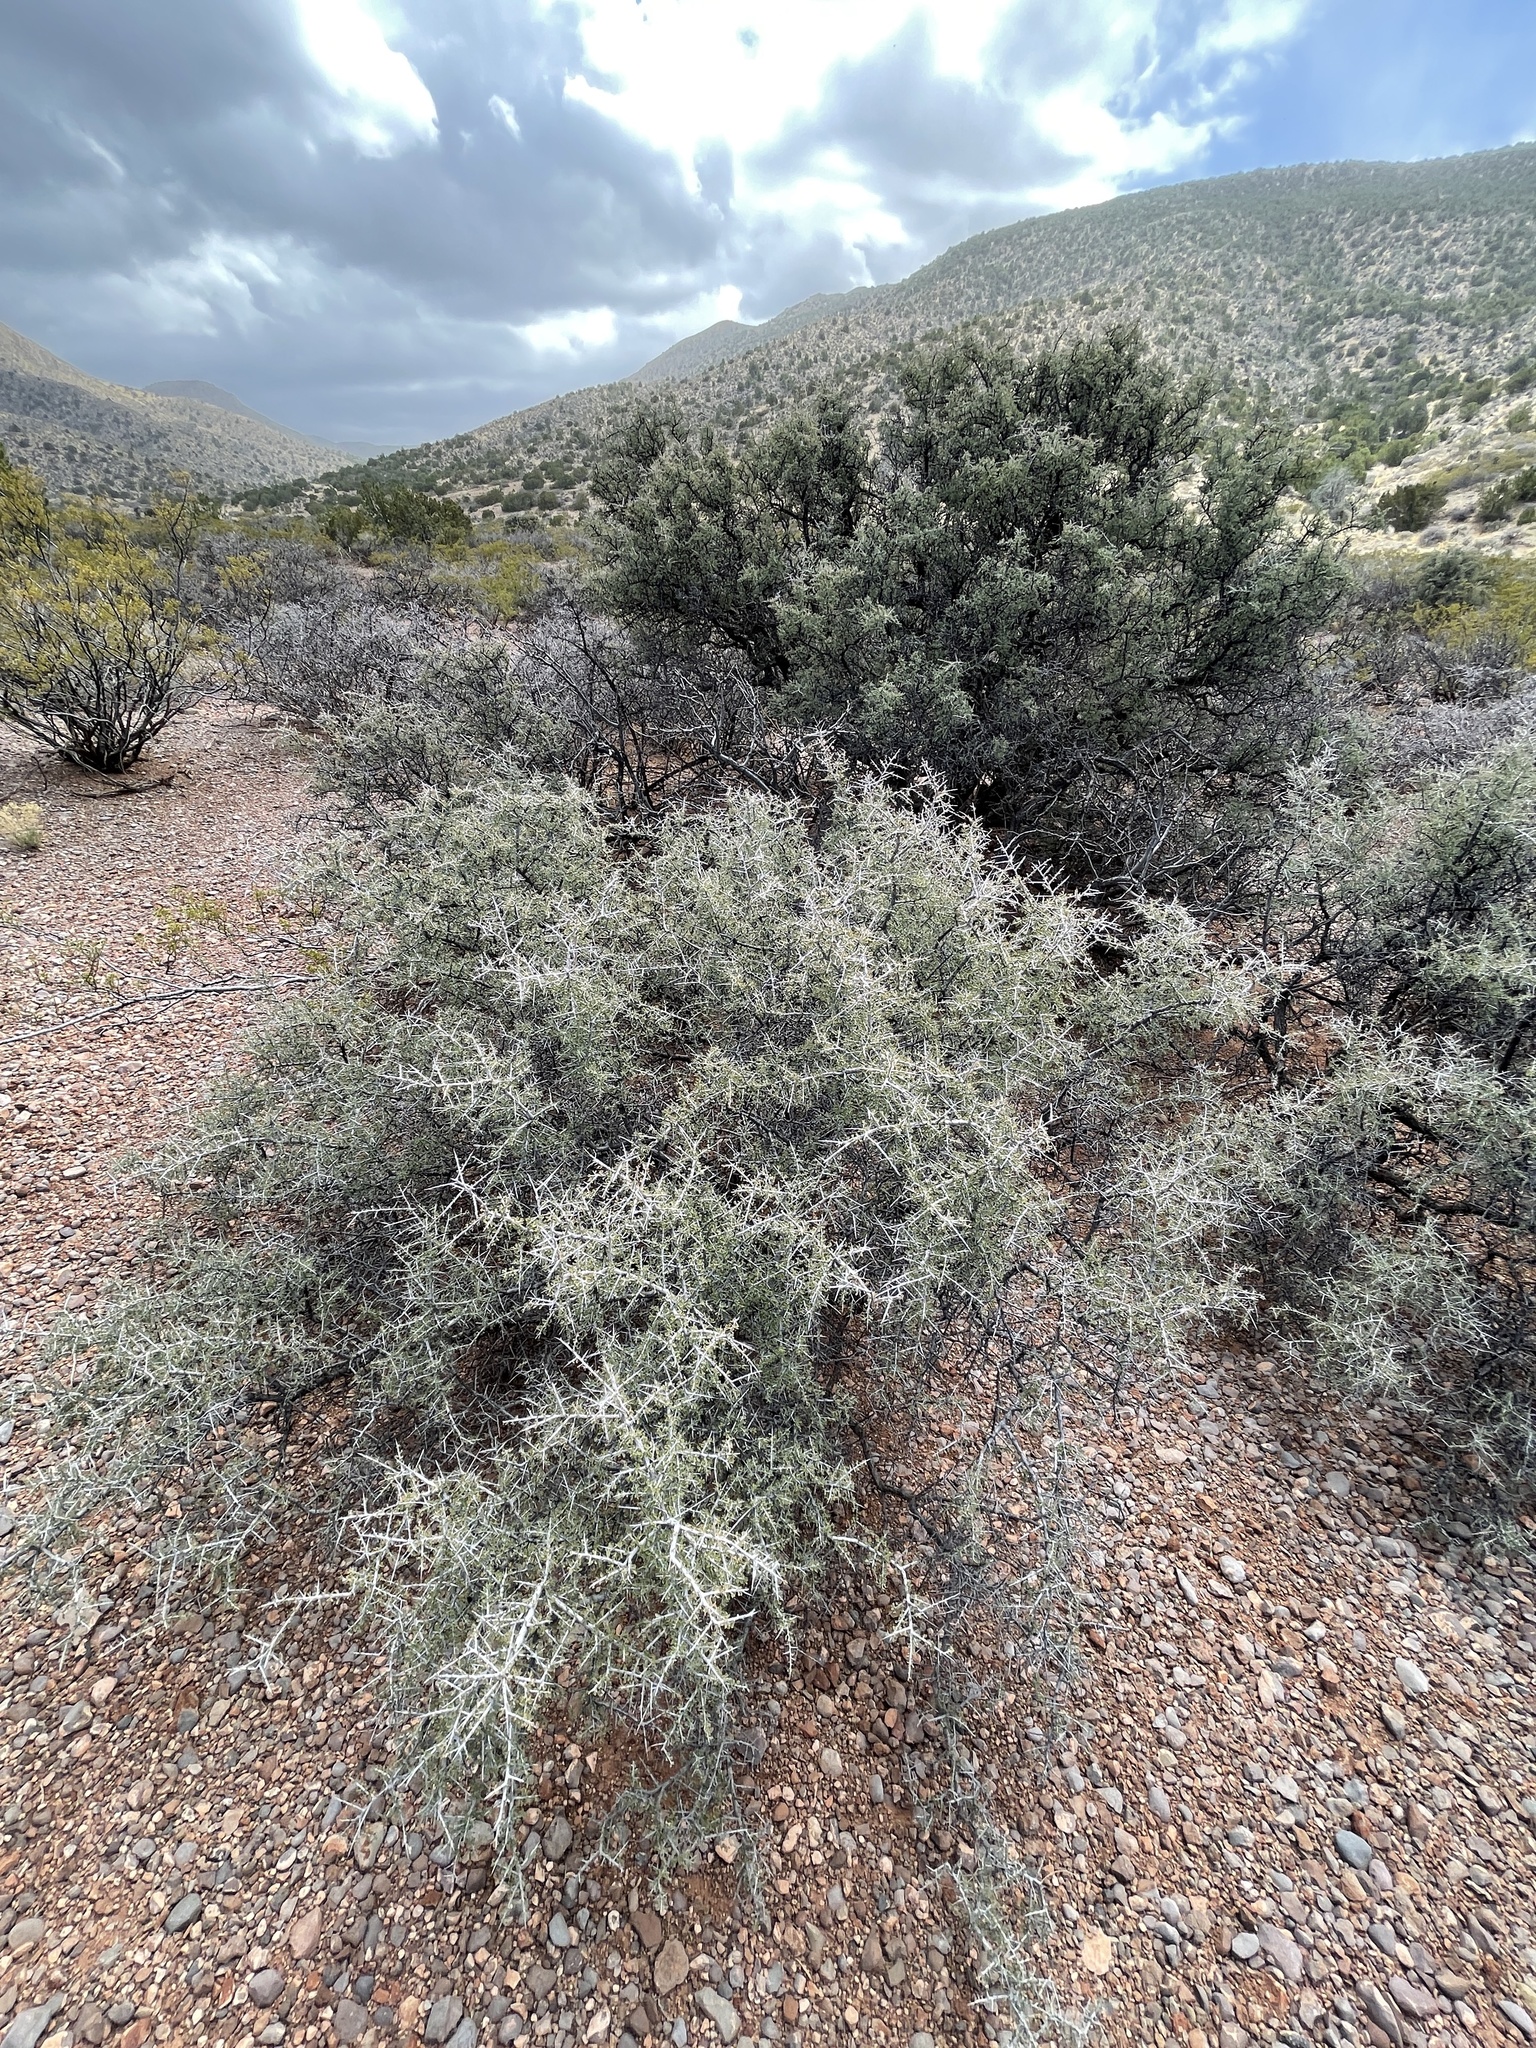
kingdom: Plantae
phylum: Tracheophyta
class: Magnoliopsida
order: Rosales
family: Rhamnaceae
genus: Condalia
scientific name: Condalia warnockii
